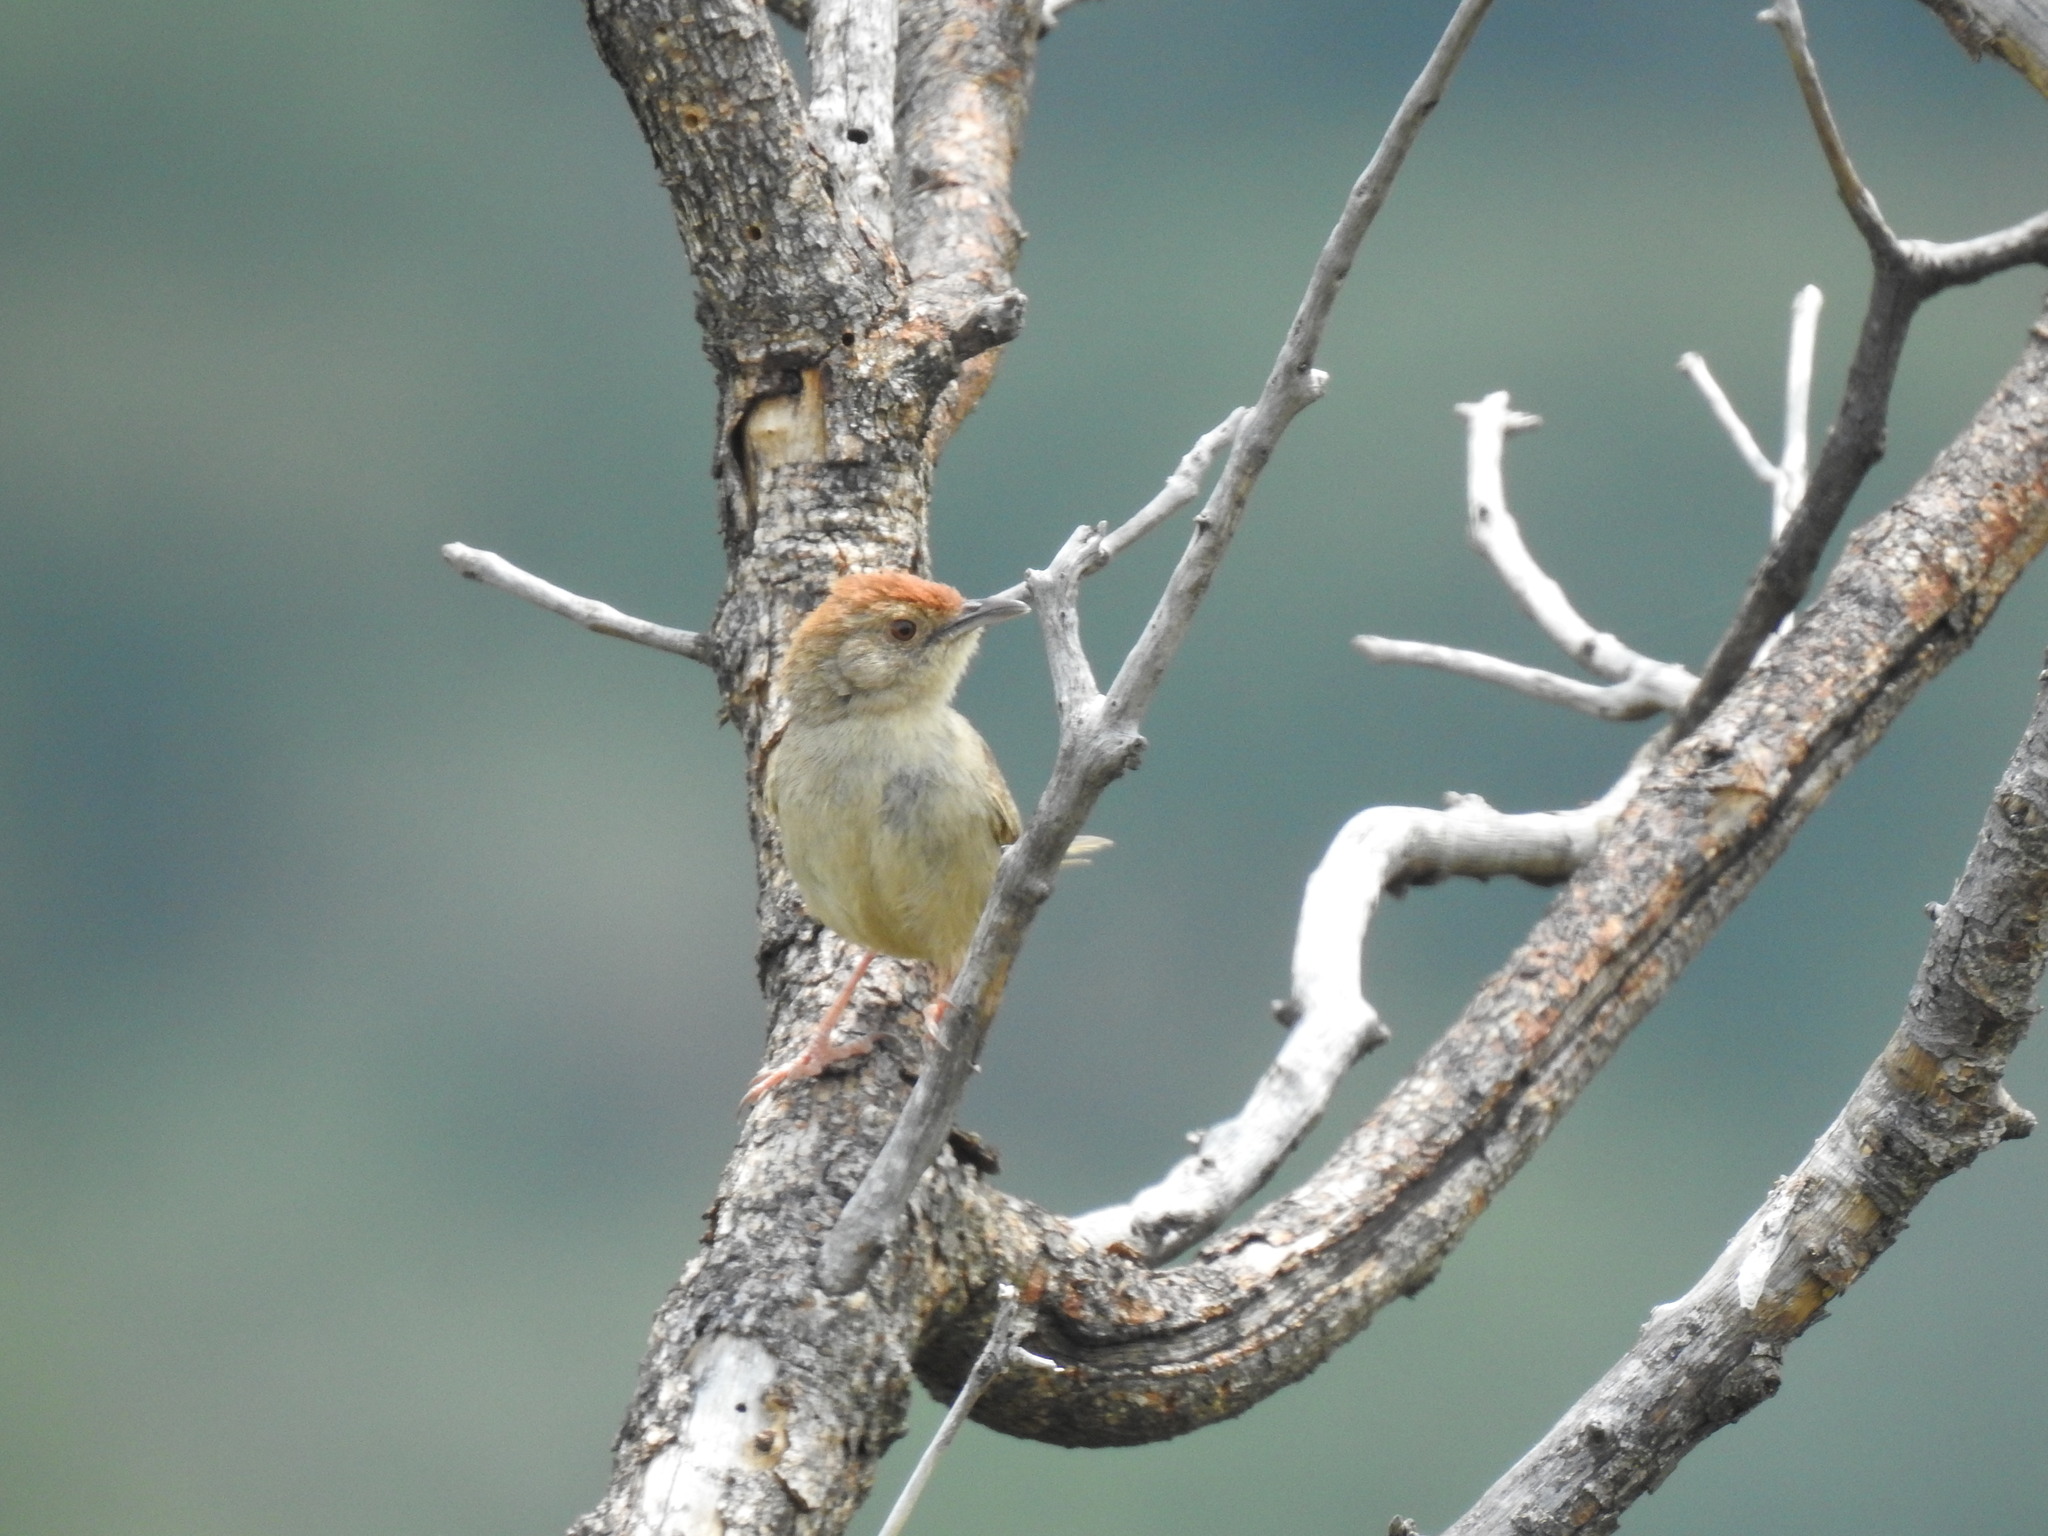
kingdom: Animalia
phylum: Chordata
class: Aves
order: Passeriformes
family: Cisticolidae
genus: Cisticola
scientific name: Cisticola aberrans
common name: Lazy cisticola
